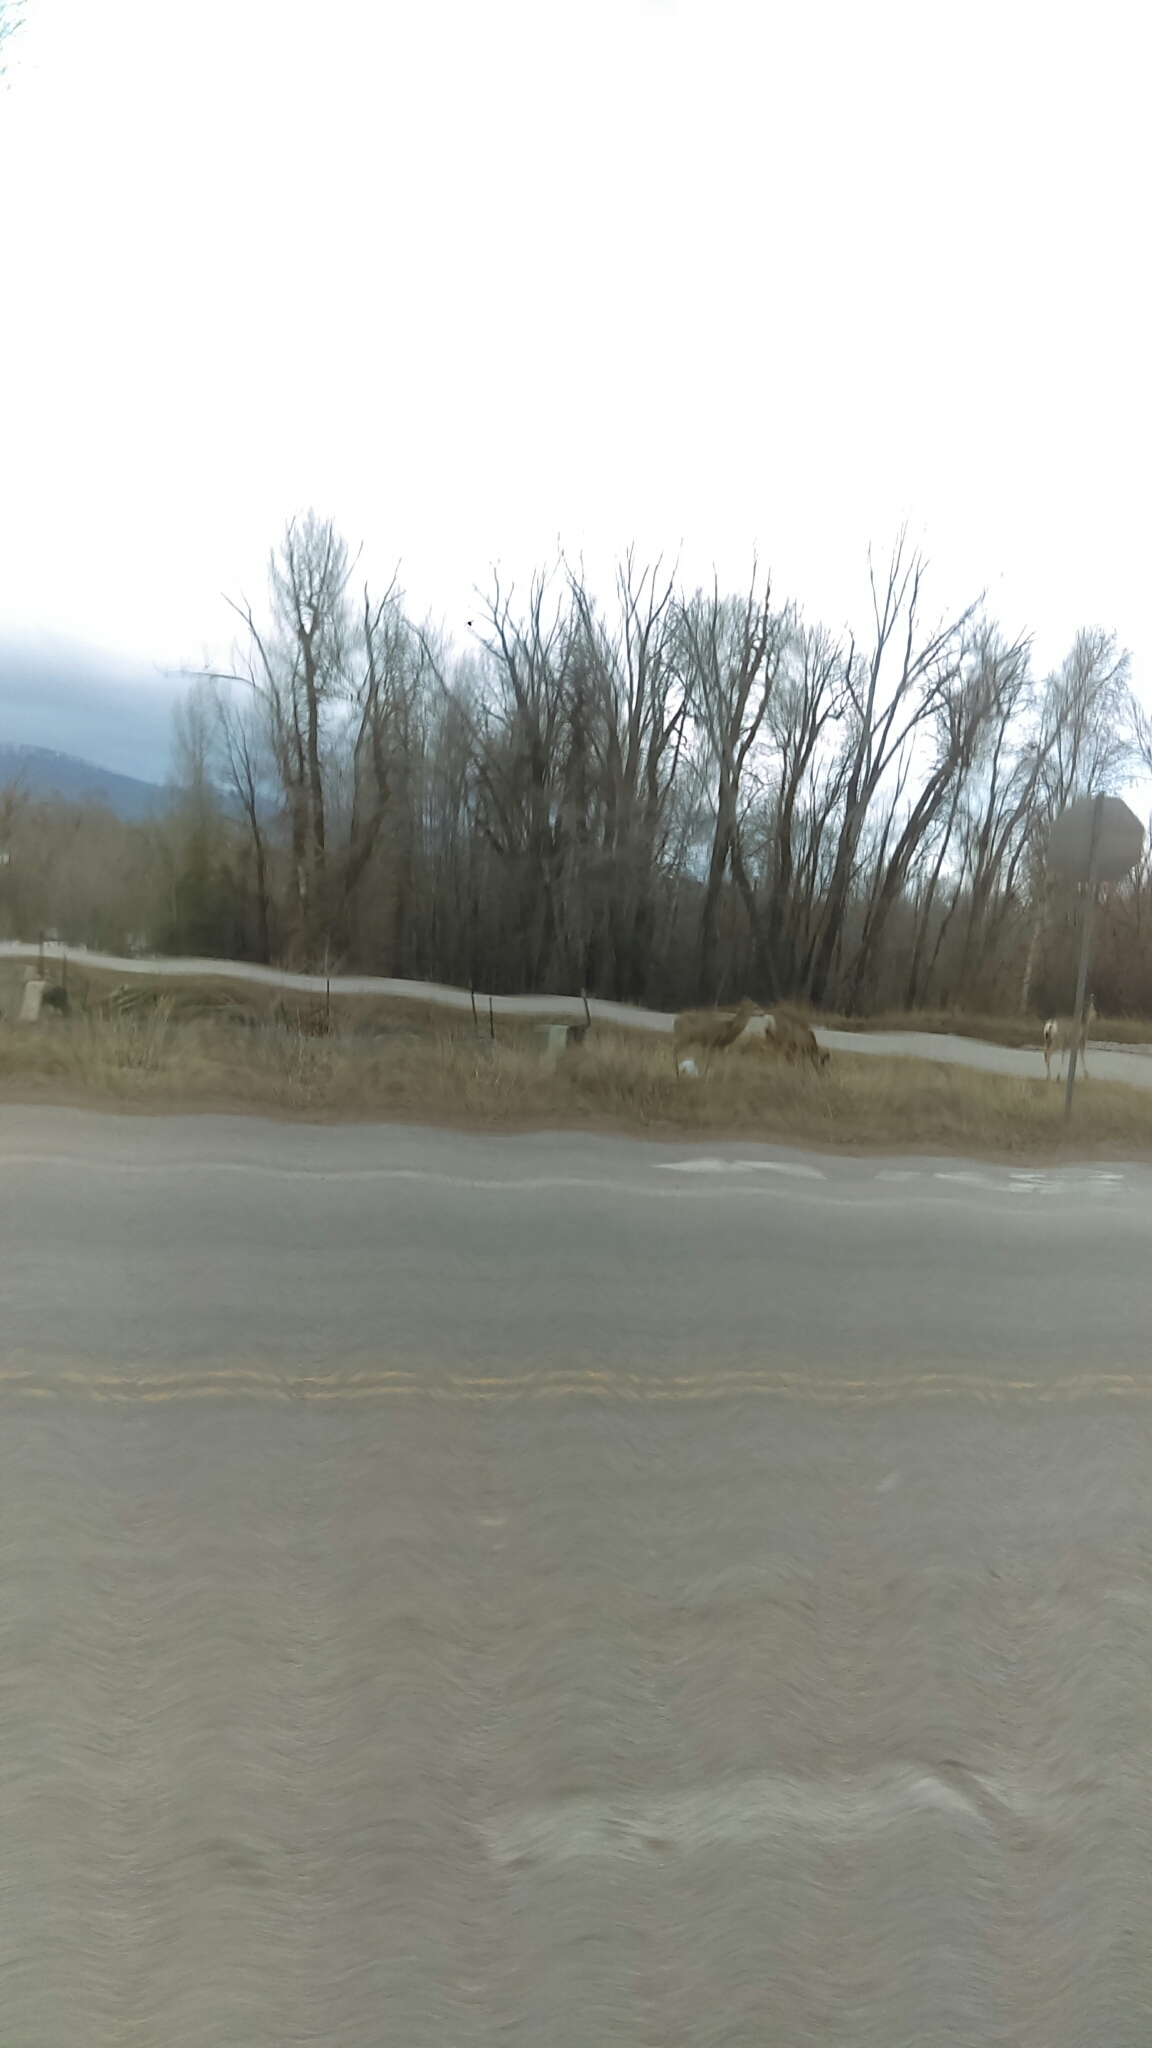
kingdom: Animalia
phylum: Chordata
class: Mammalia
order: Artiodactyla
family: Cervidae
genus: Odocoileus
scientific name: Odocoileus hemionus
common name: Mule deer
